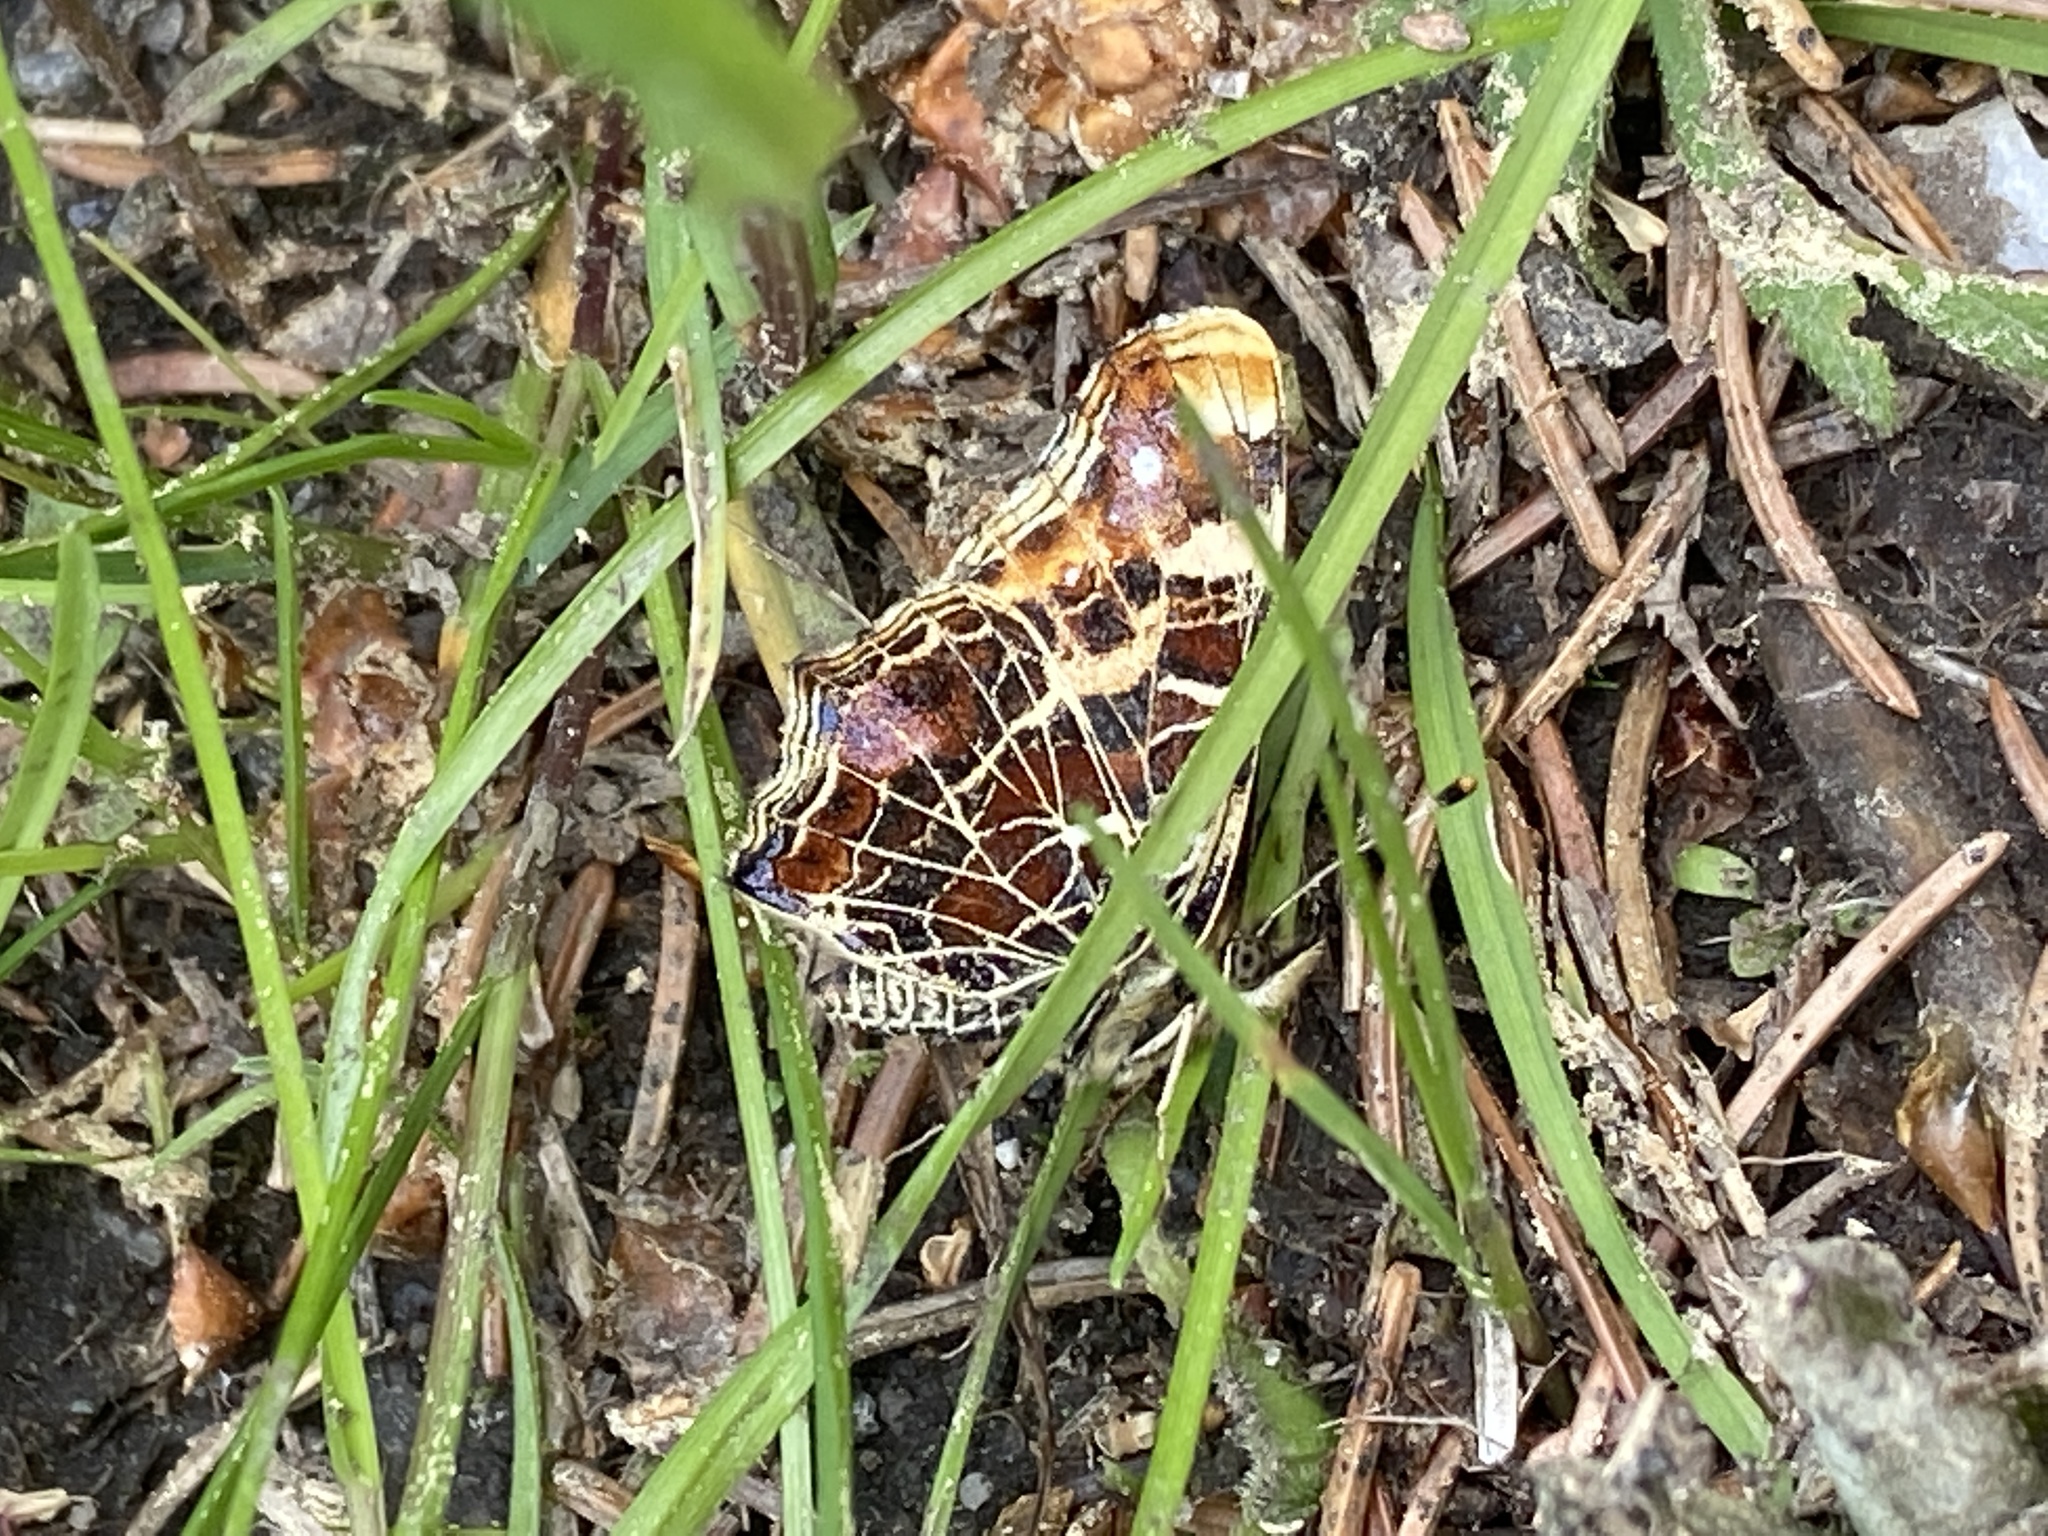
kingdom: Animalia
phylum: Arthropoda
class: Insecta
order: Lepidoptera
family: Nymphalidae
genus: Araschnia
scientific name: Araschnia levana
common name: Map butterfly
